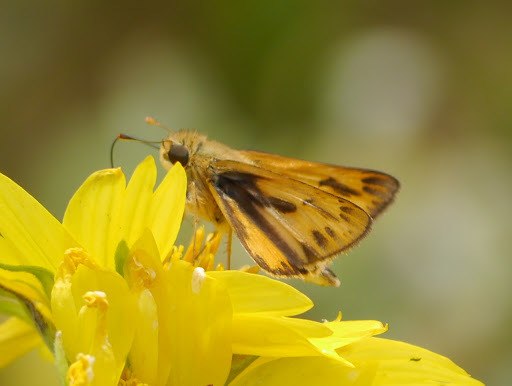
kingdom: Animalia
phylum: Arthropoda
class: Insecta
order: Lepidoptera
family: Hesperiidae
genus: Hylephila
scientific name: Hylephila phyleus
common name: Fiery skipper
